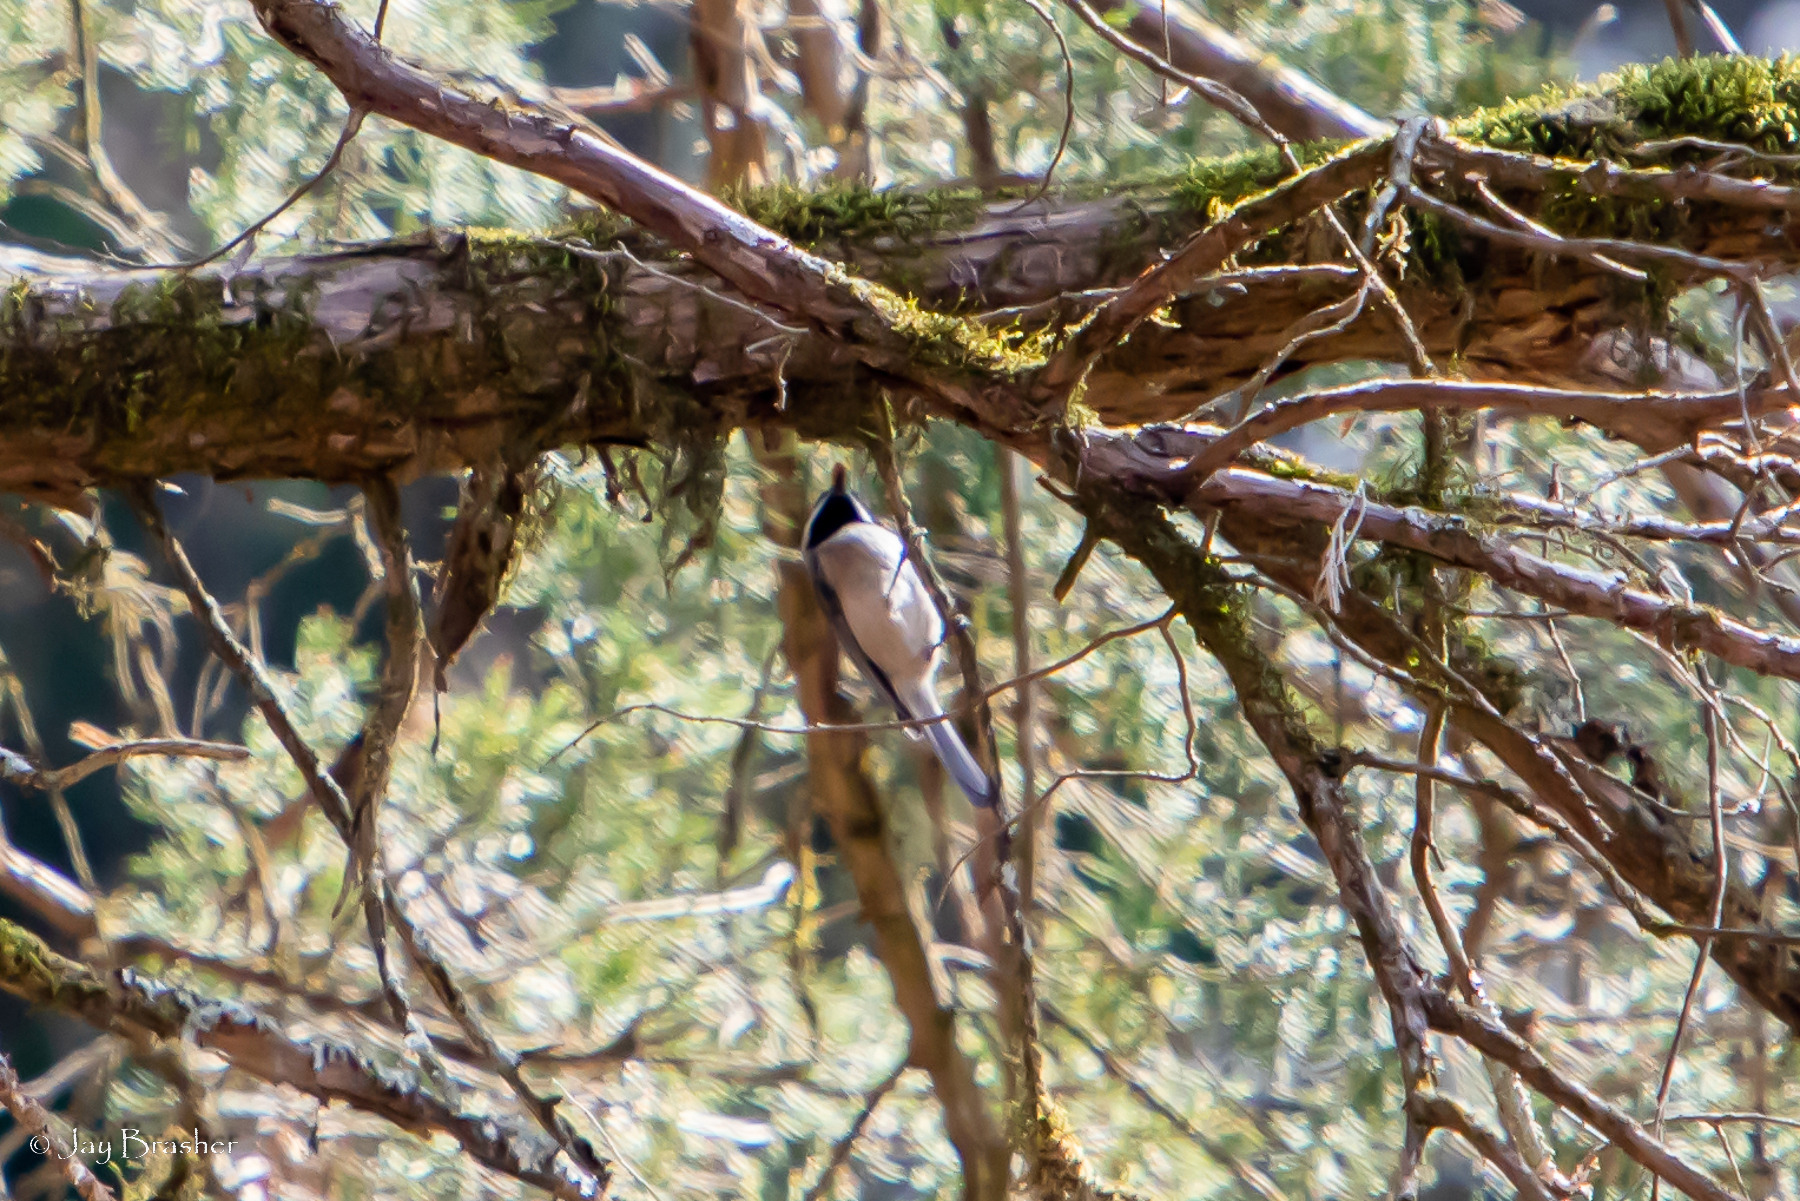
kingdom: Animalia
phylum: Chordata
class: Aves
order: Passeriformes
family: Paridae
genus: Poecile
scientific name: Poecile carolinensis
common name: Carolina chickadee
